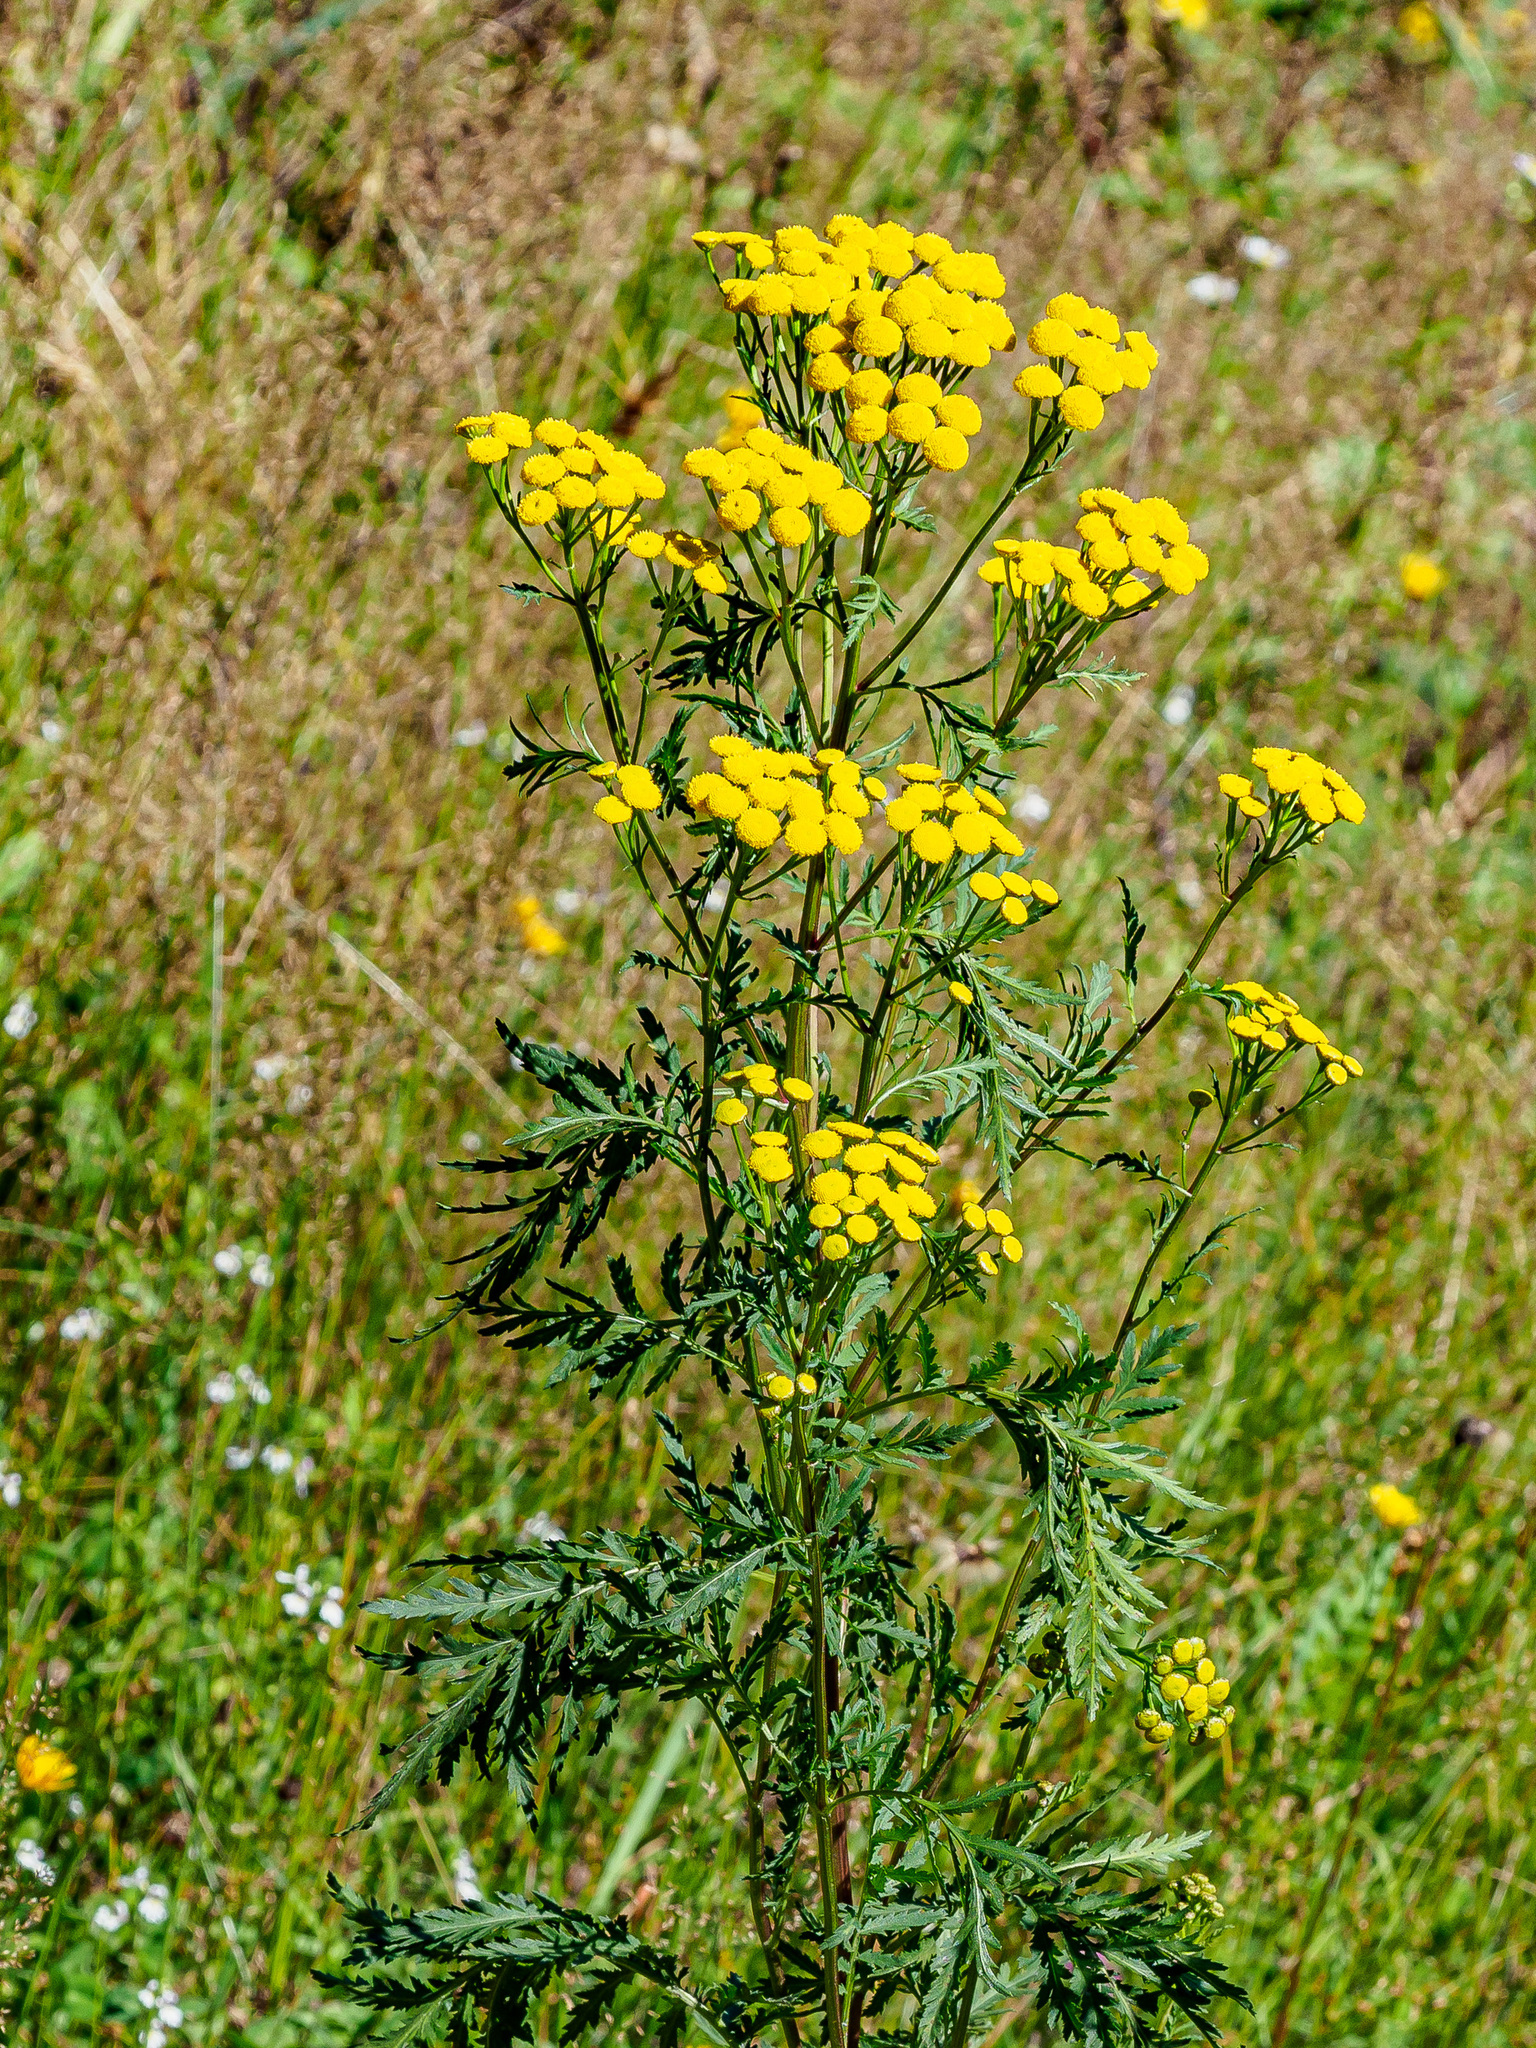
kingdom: Plantae
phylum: Tracheophyta
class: Magnoliopsida
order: Asterales
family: Asteraceae
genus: Tanacetum
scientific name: Tanacetum vulgare
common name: Common tansy
